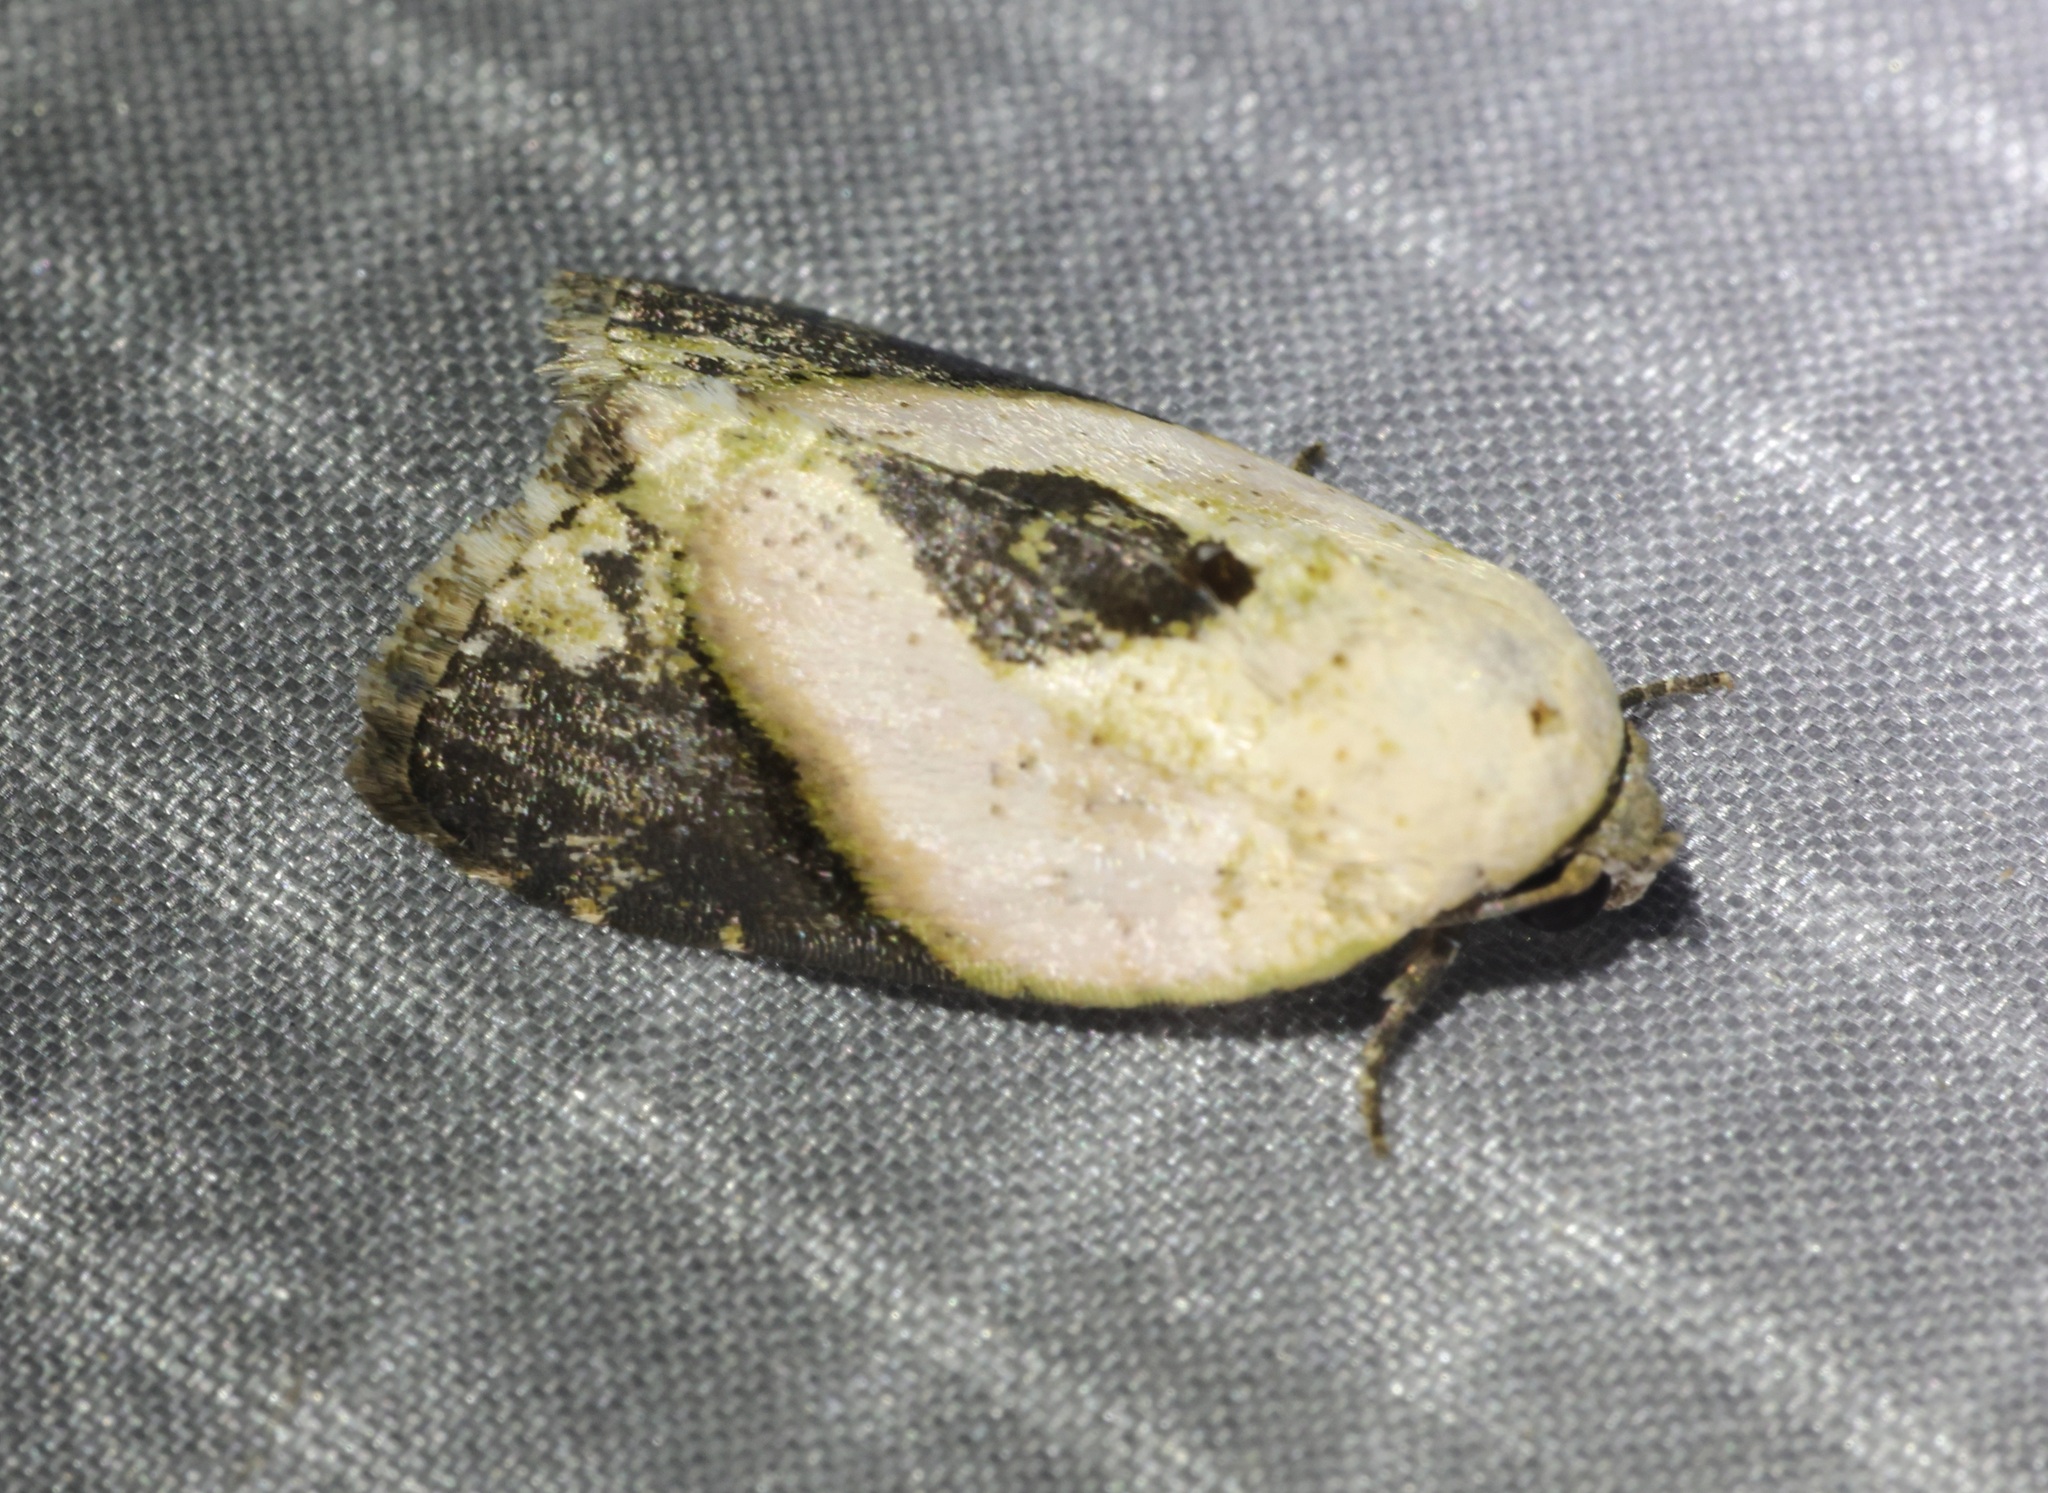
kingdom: Animalia
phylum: Arthropoda
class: Insecta
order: Lepidoptera
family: Nolidae
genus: Giaura
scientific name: Giaura niveidisca
